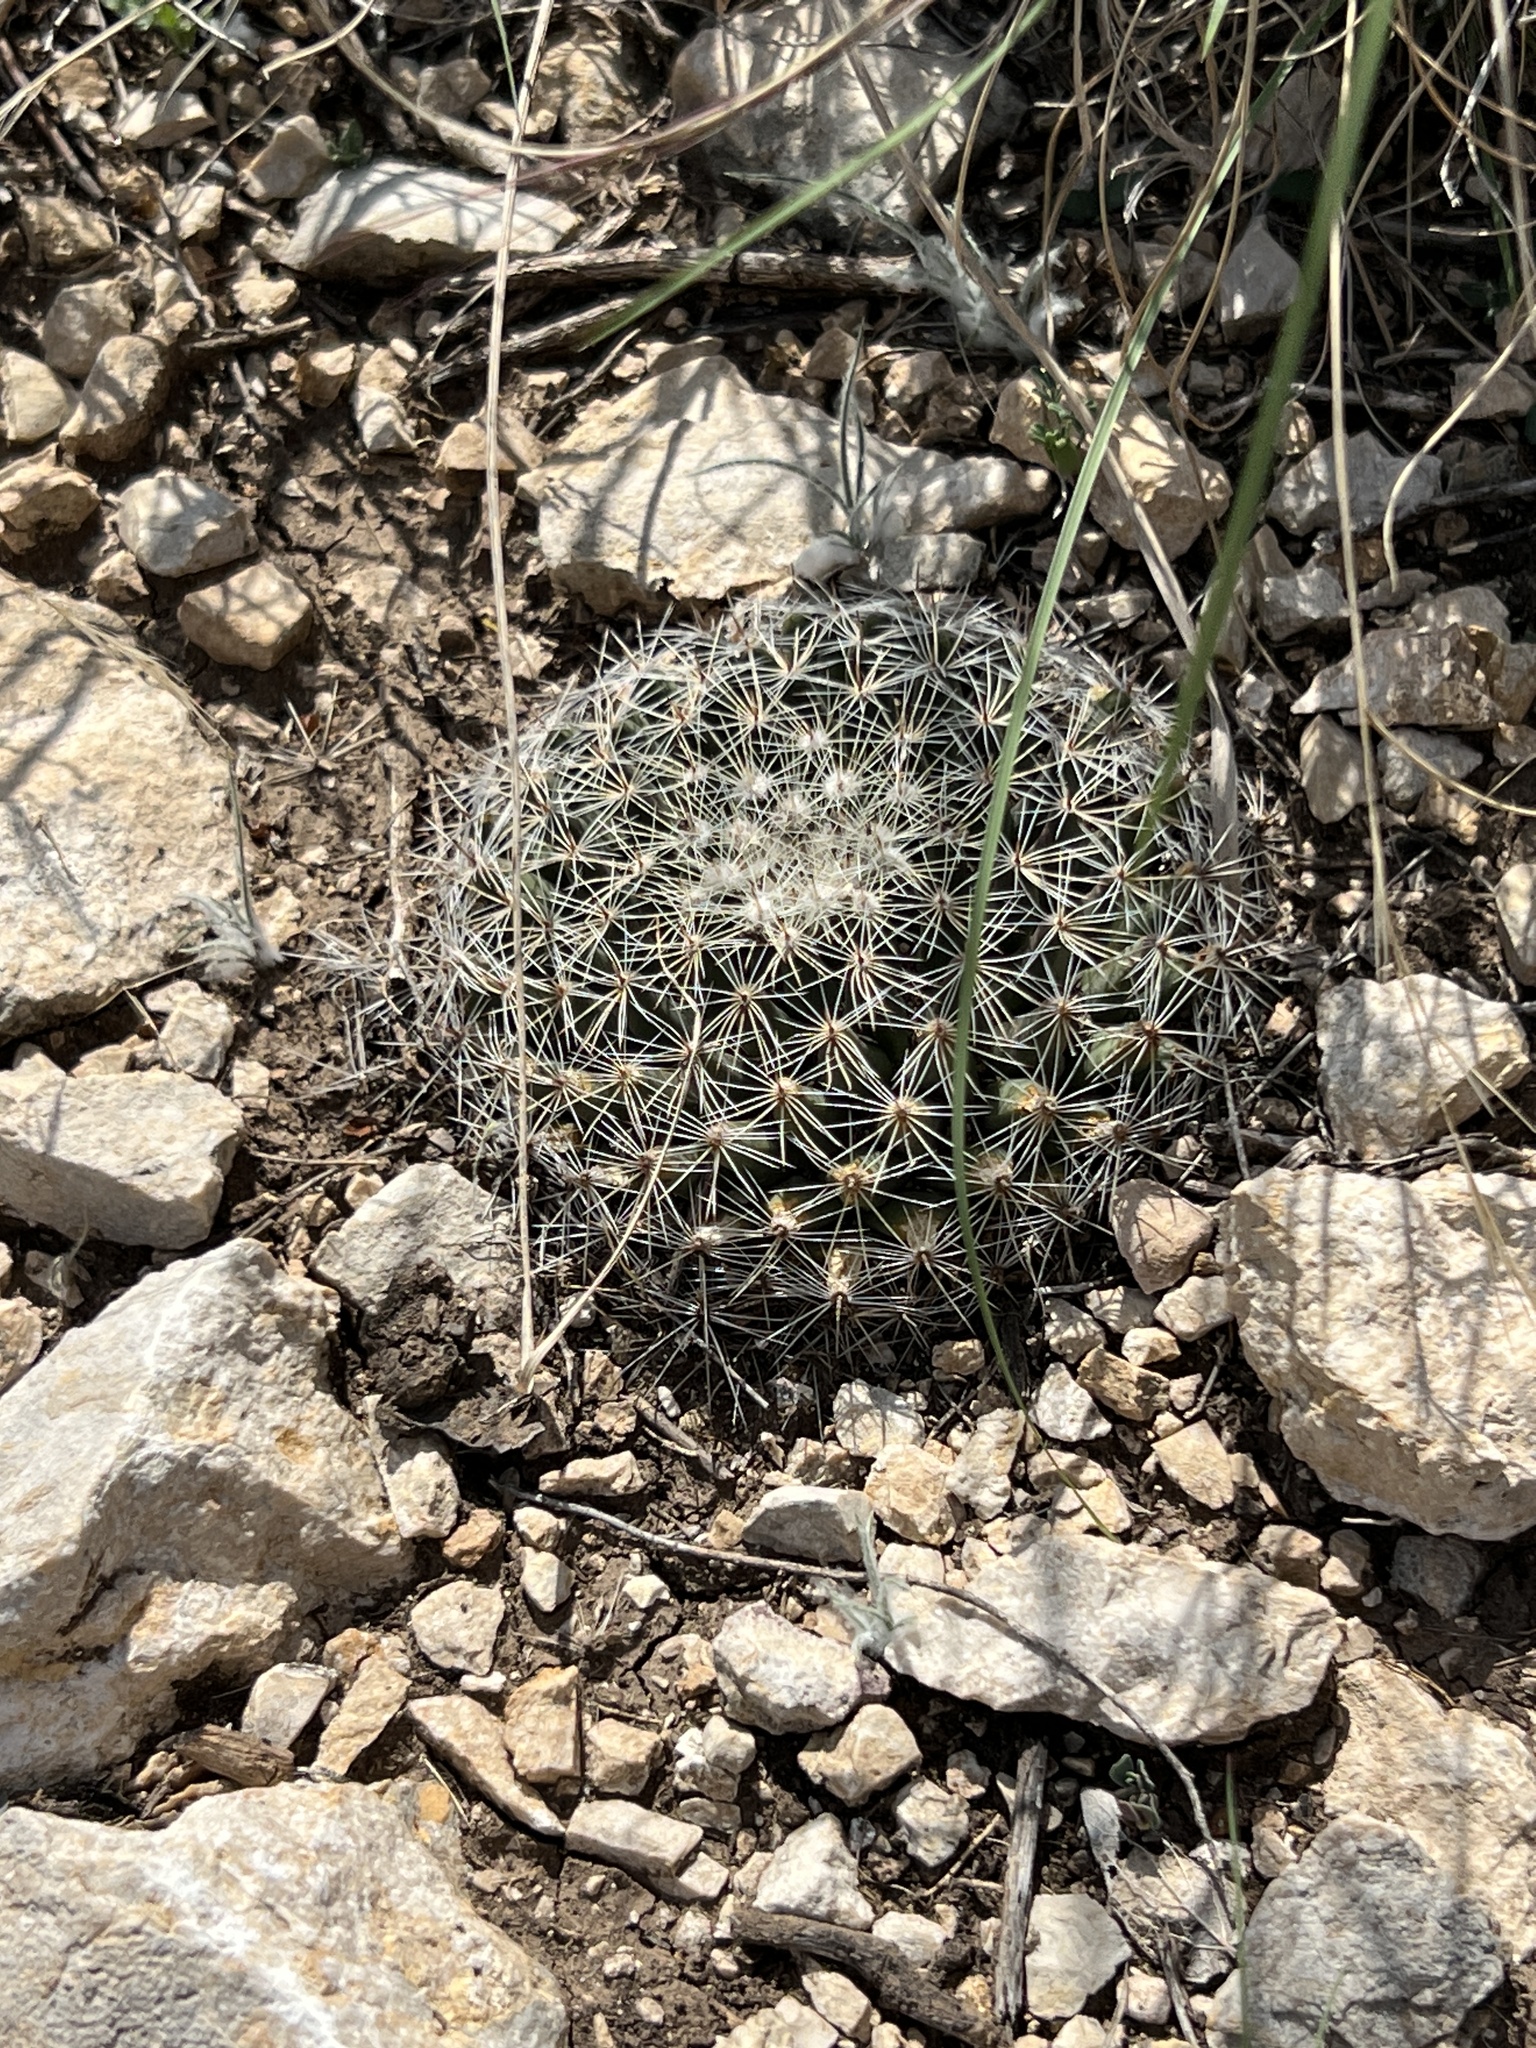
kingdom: Plantae
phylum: Tracheophyta
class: Magnoliopsida
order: Caryophyllales
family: Cactaceae
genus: Mammillaria
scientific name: Mammillaria heyderi
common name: Little nipple cactus
